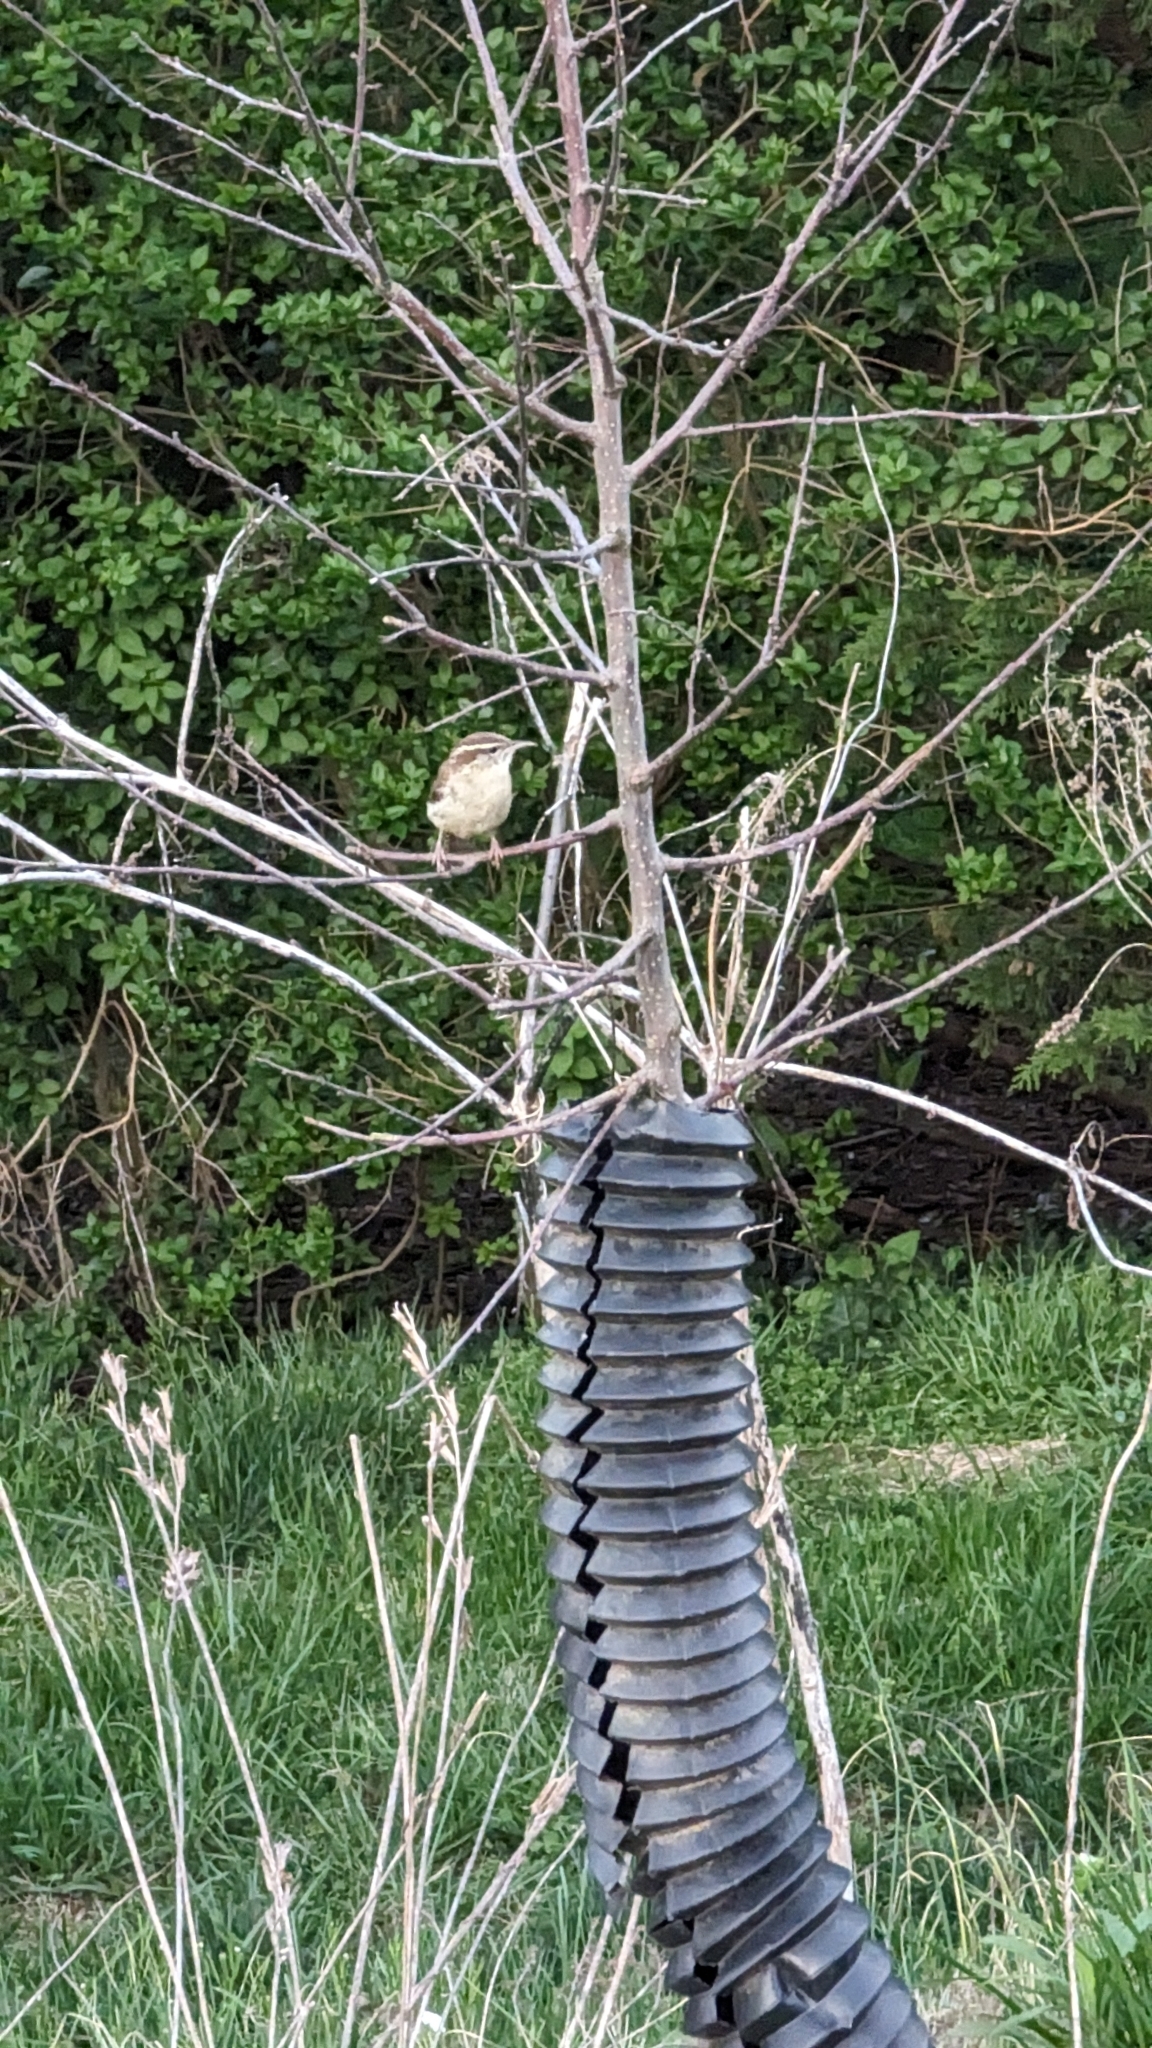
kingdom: Animalia
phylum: Chordata
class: Aves
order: Passeriformes
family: Troglodytidae
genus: Thryothorus
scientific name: Thryothorus ludovicianus
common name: Carolina wren
